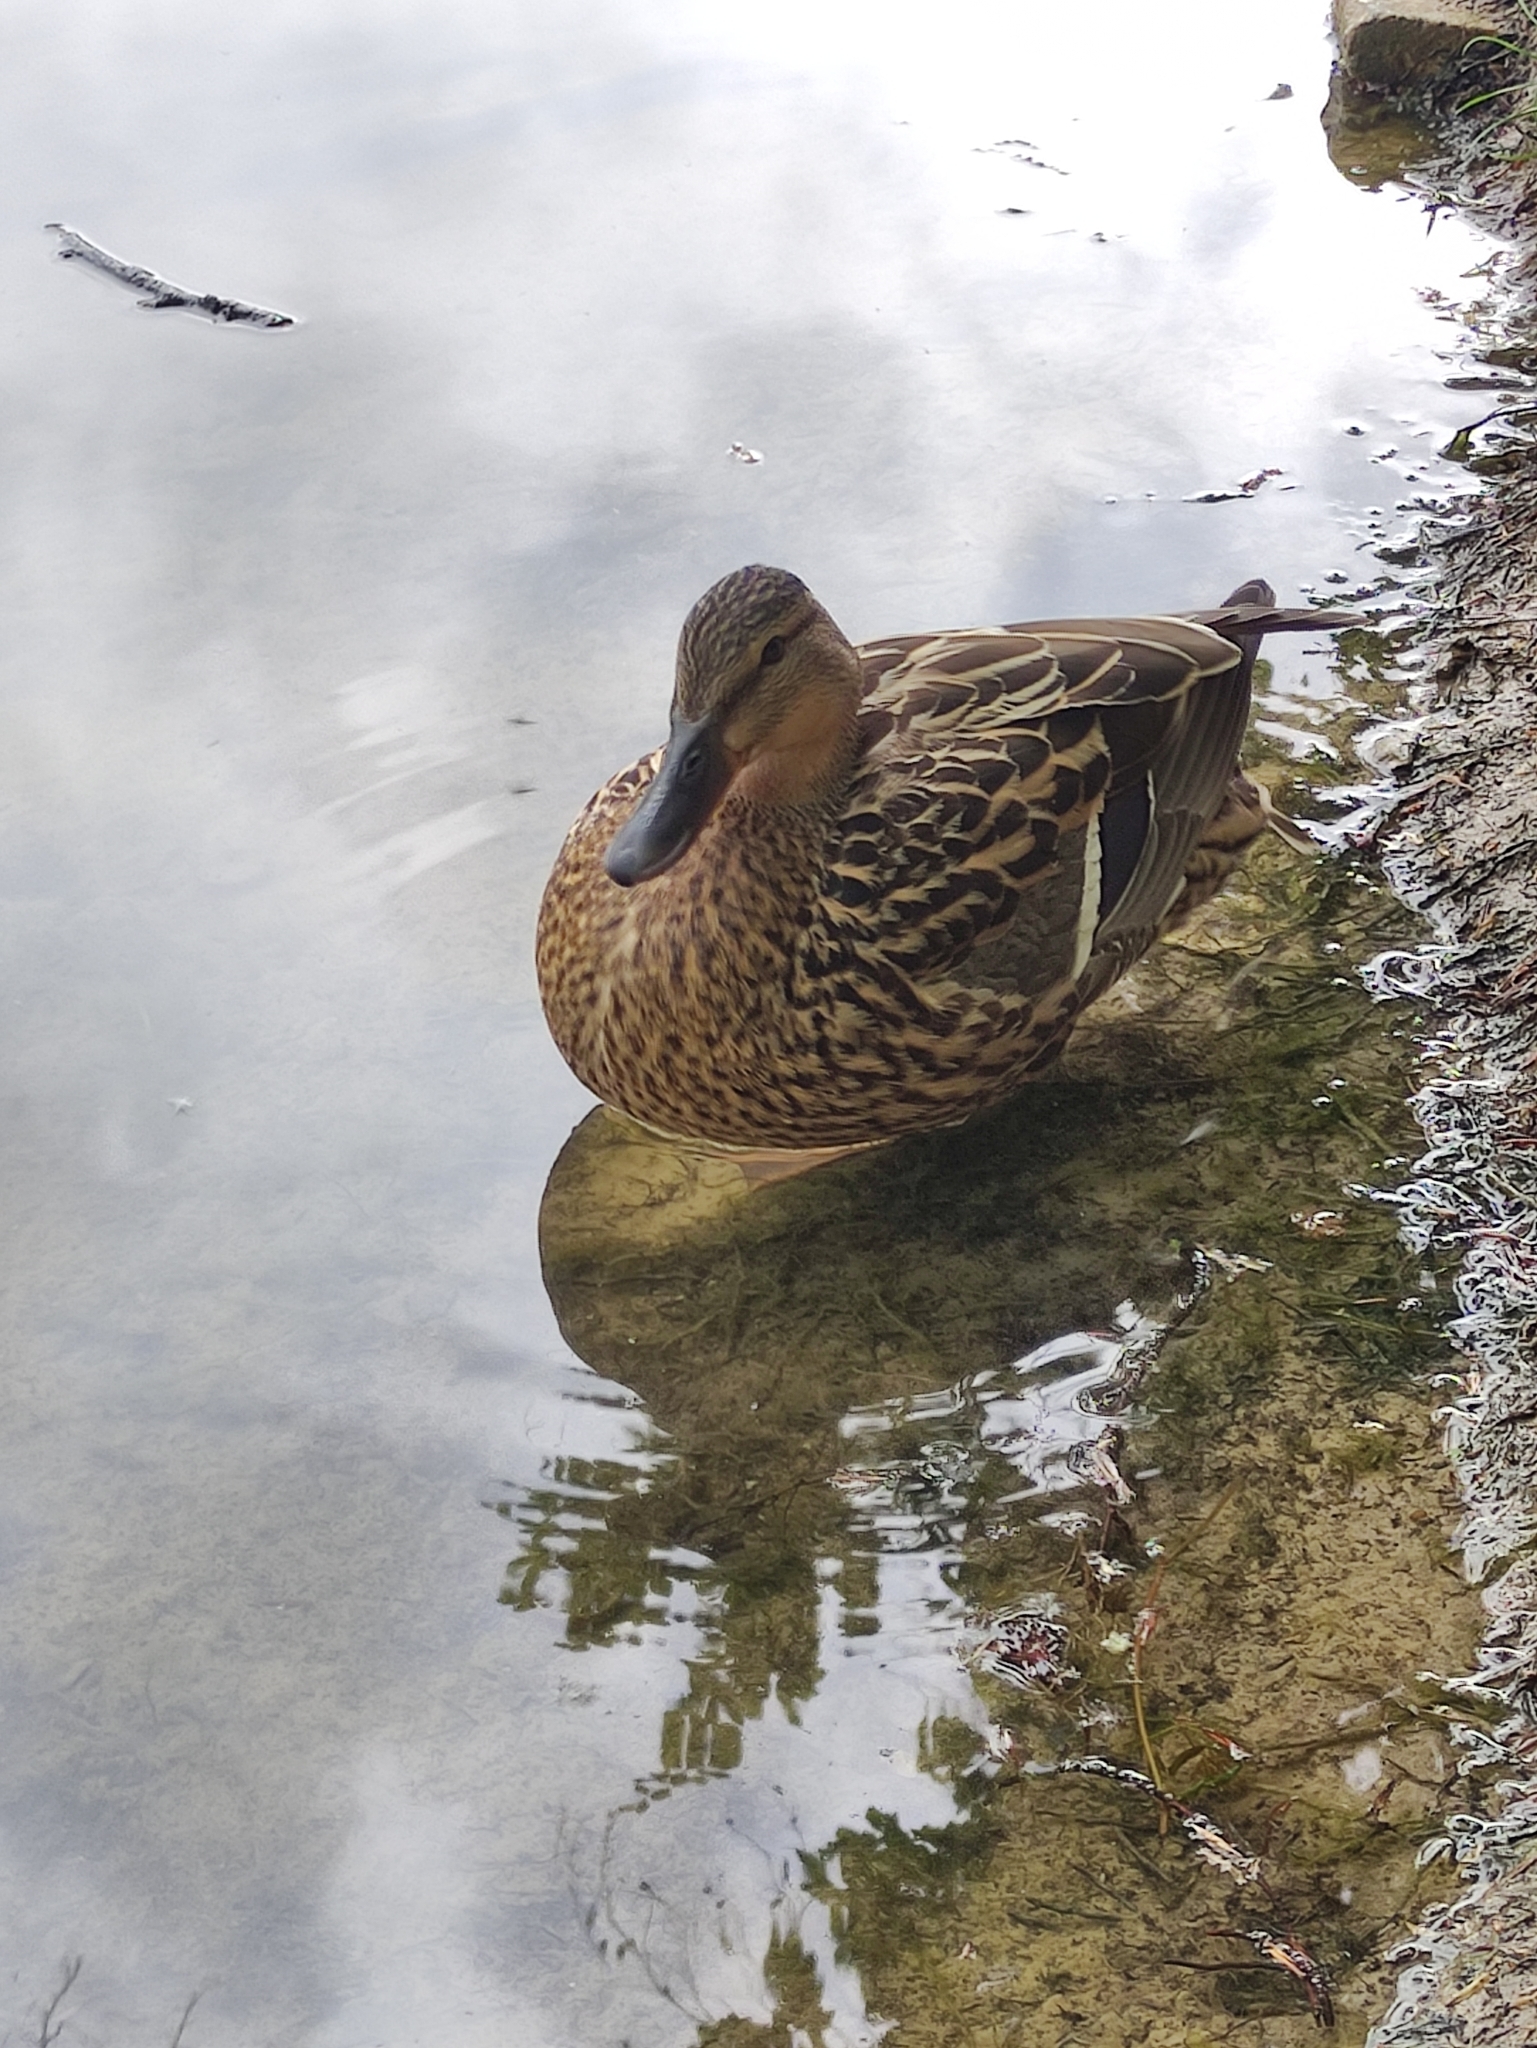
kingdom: Animalia
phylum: Chordata
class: Aves
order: Anseriformes
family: Anatidae
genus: Anas
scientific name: Anas platyrhynchos
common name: Mallard
